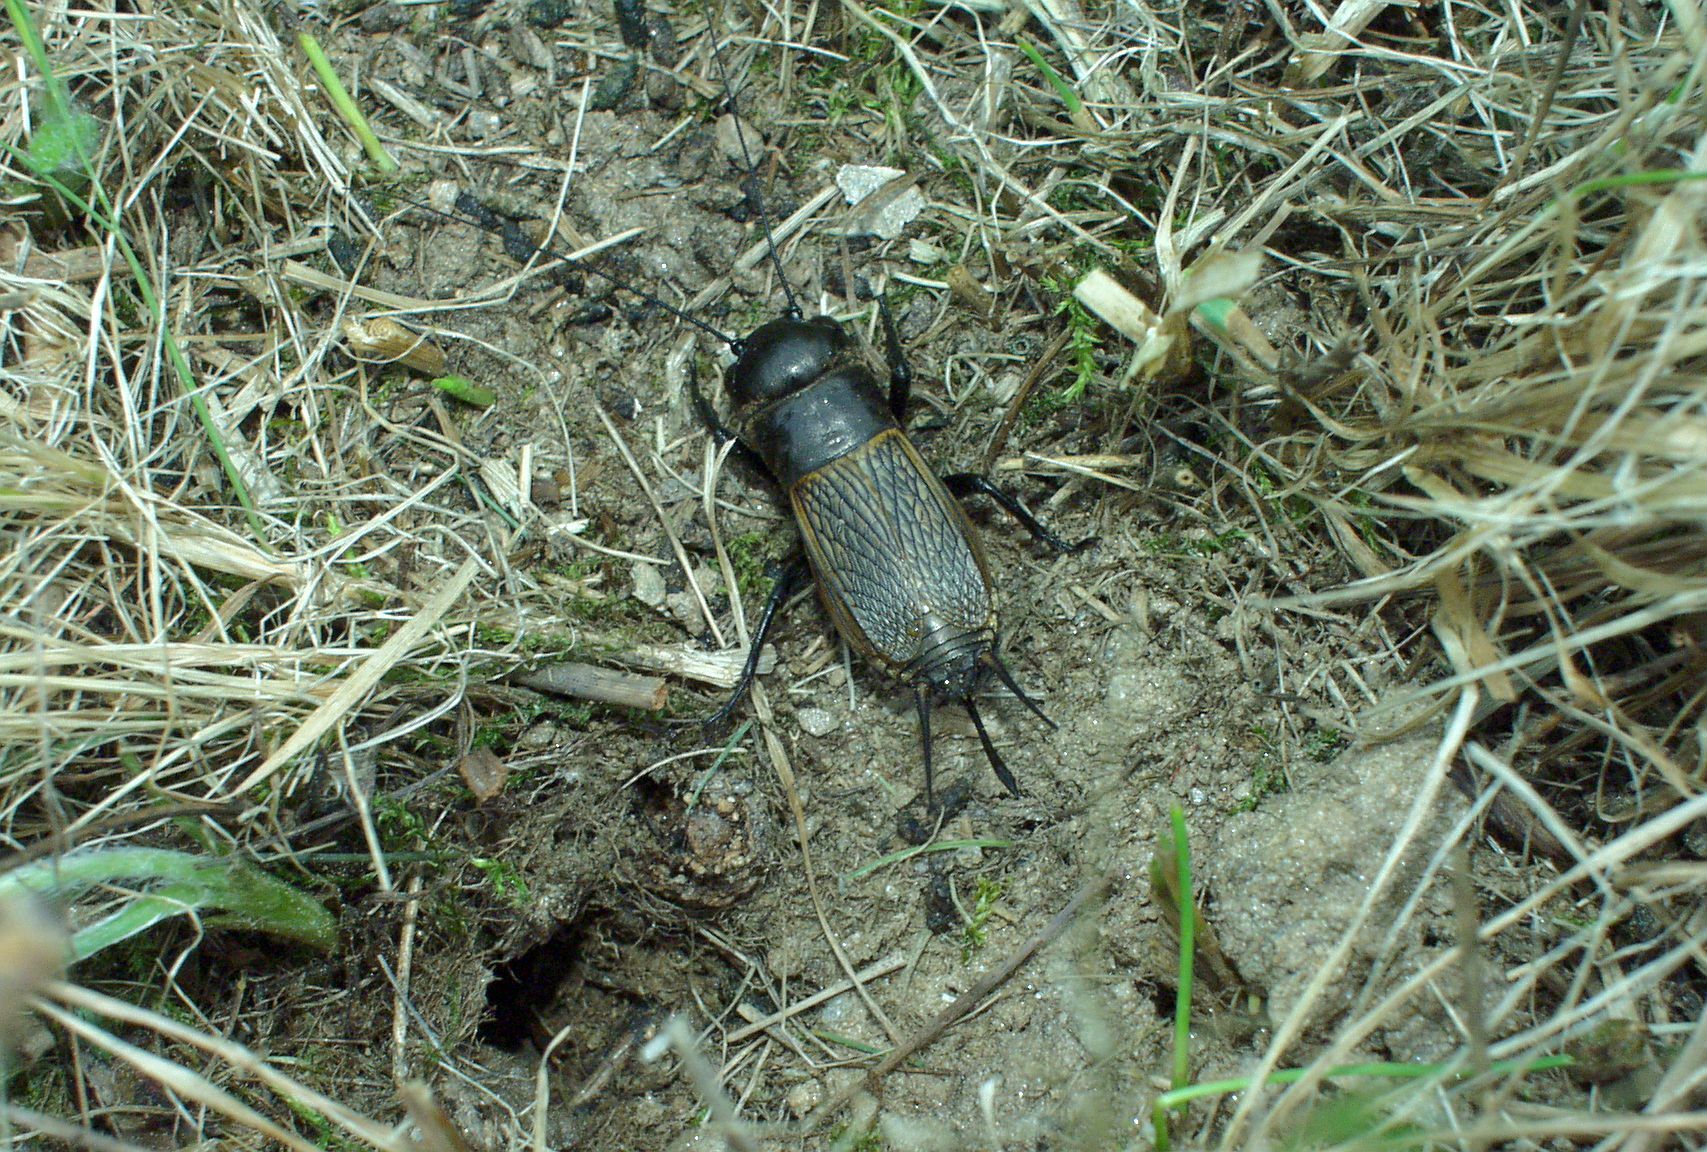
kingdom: Animalia
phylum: Arthropoda
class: Insecta
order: Orthoptera
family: Gryllidae
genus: Gryllus
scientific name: Gryllus campestris
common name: Field cricket
